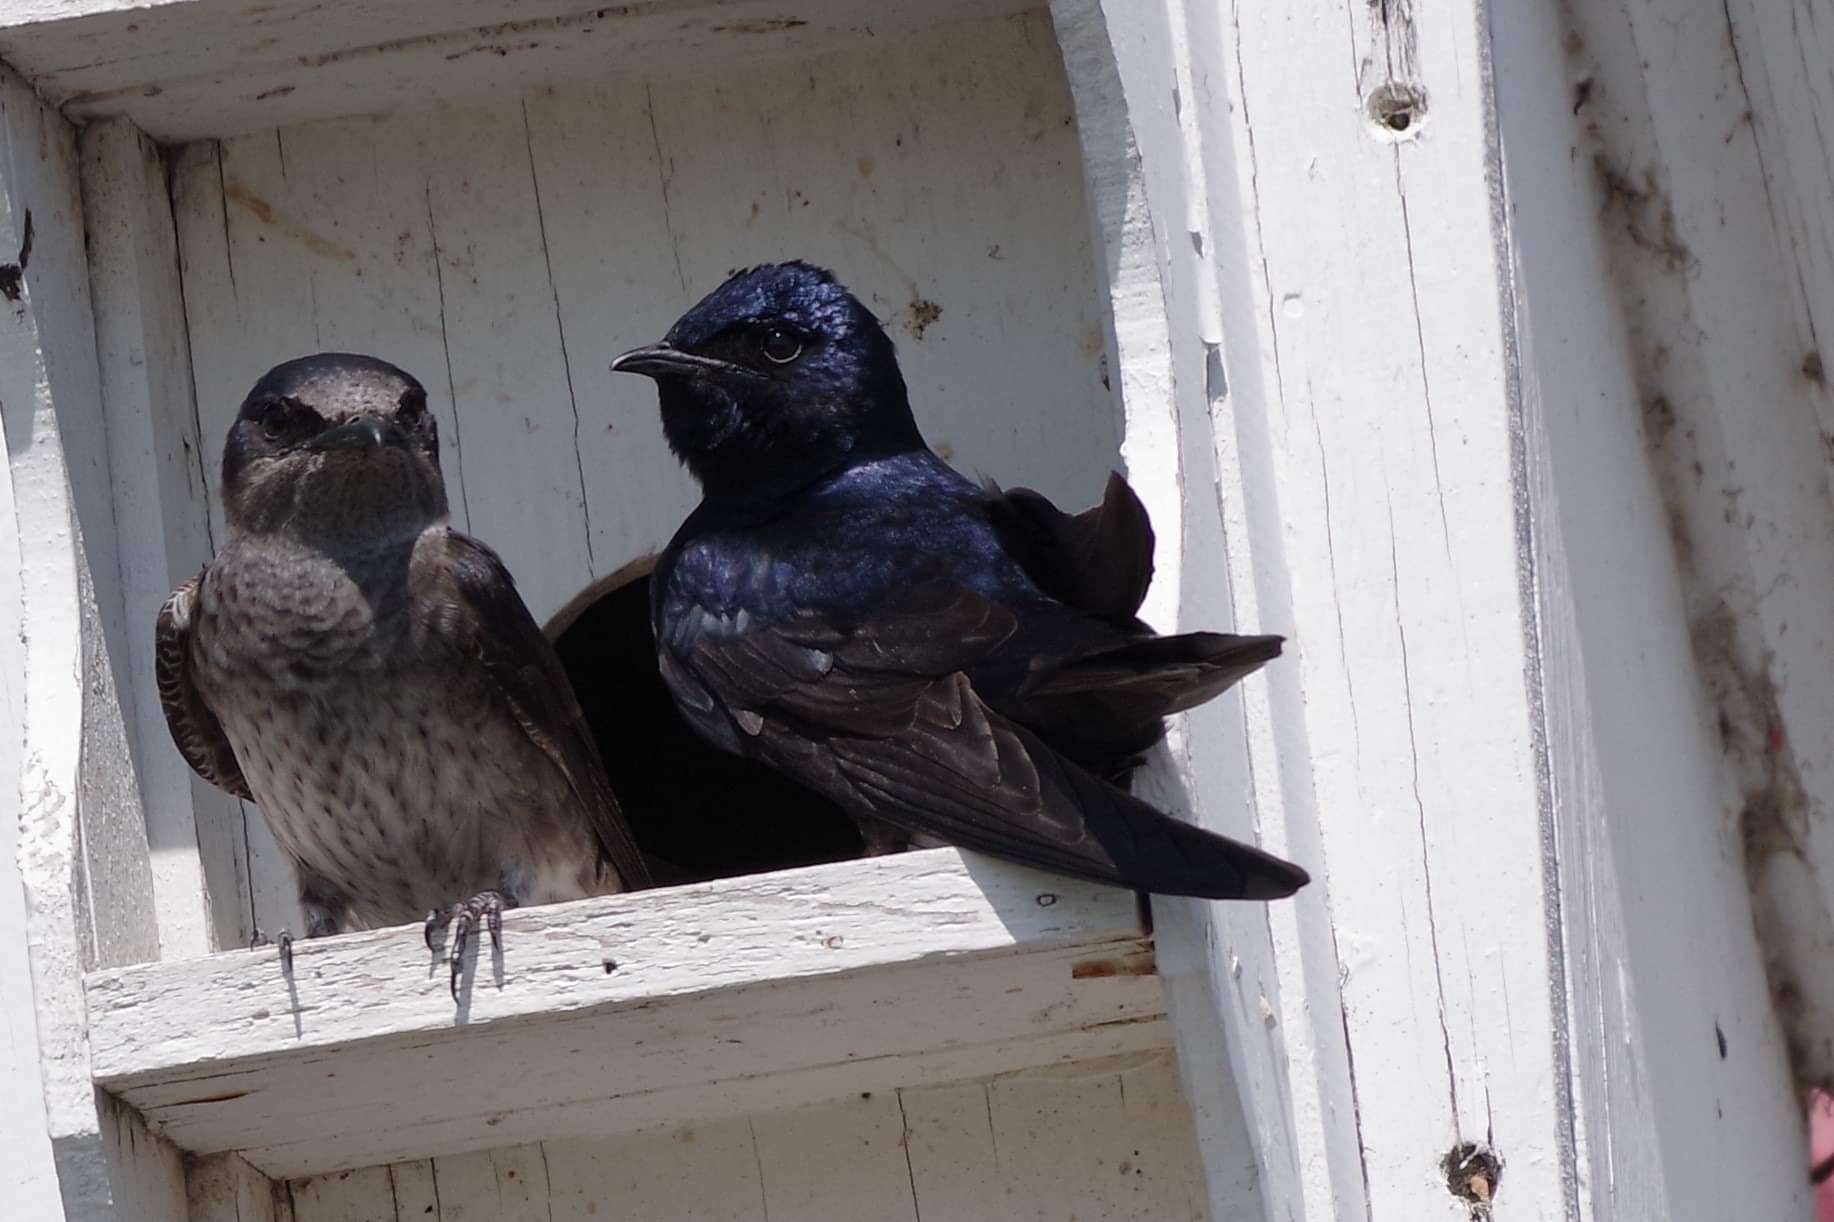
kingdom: Animalia
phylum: Chordata
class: Aves
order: Passeriformes
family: Hirundinidae
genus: Progne
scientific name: Progne subis
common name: Purple martin
